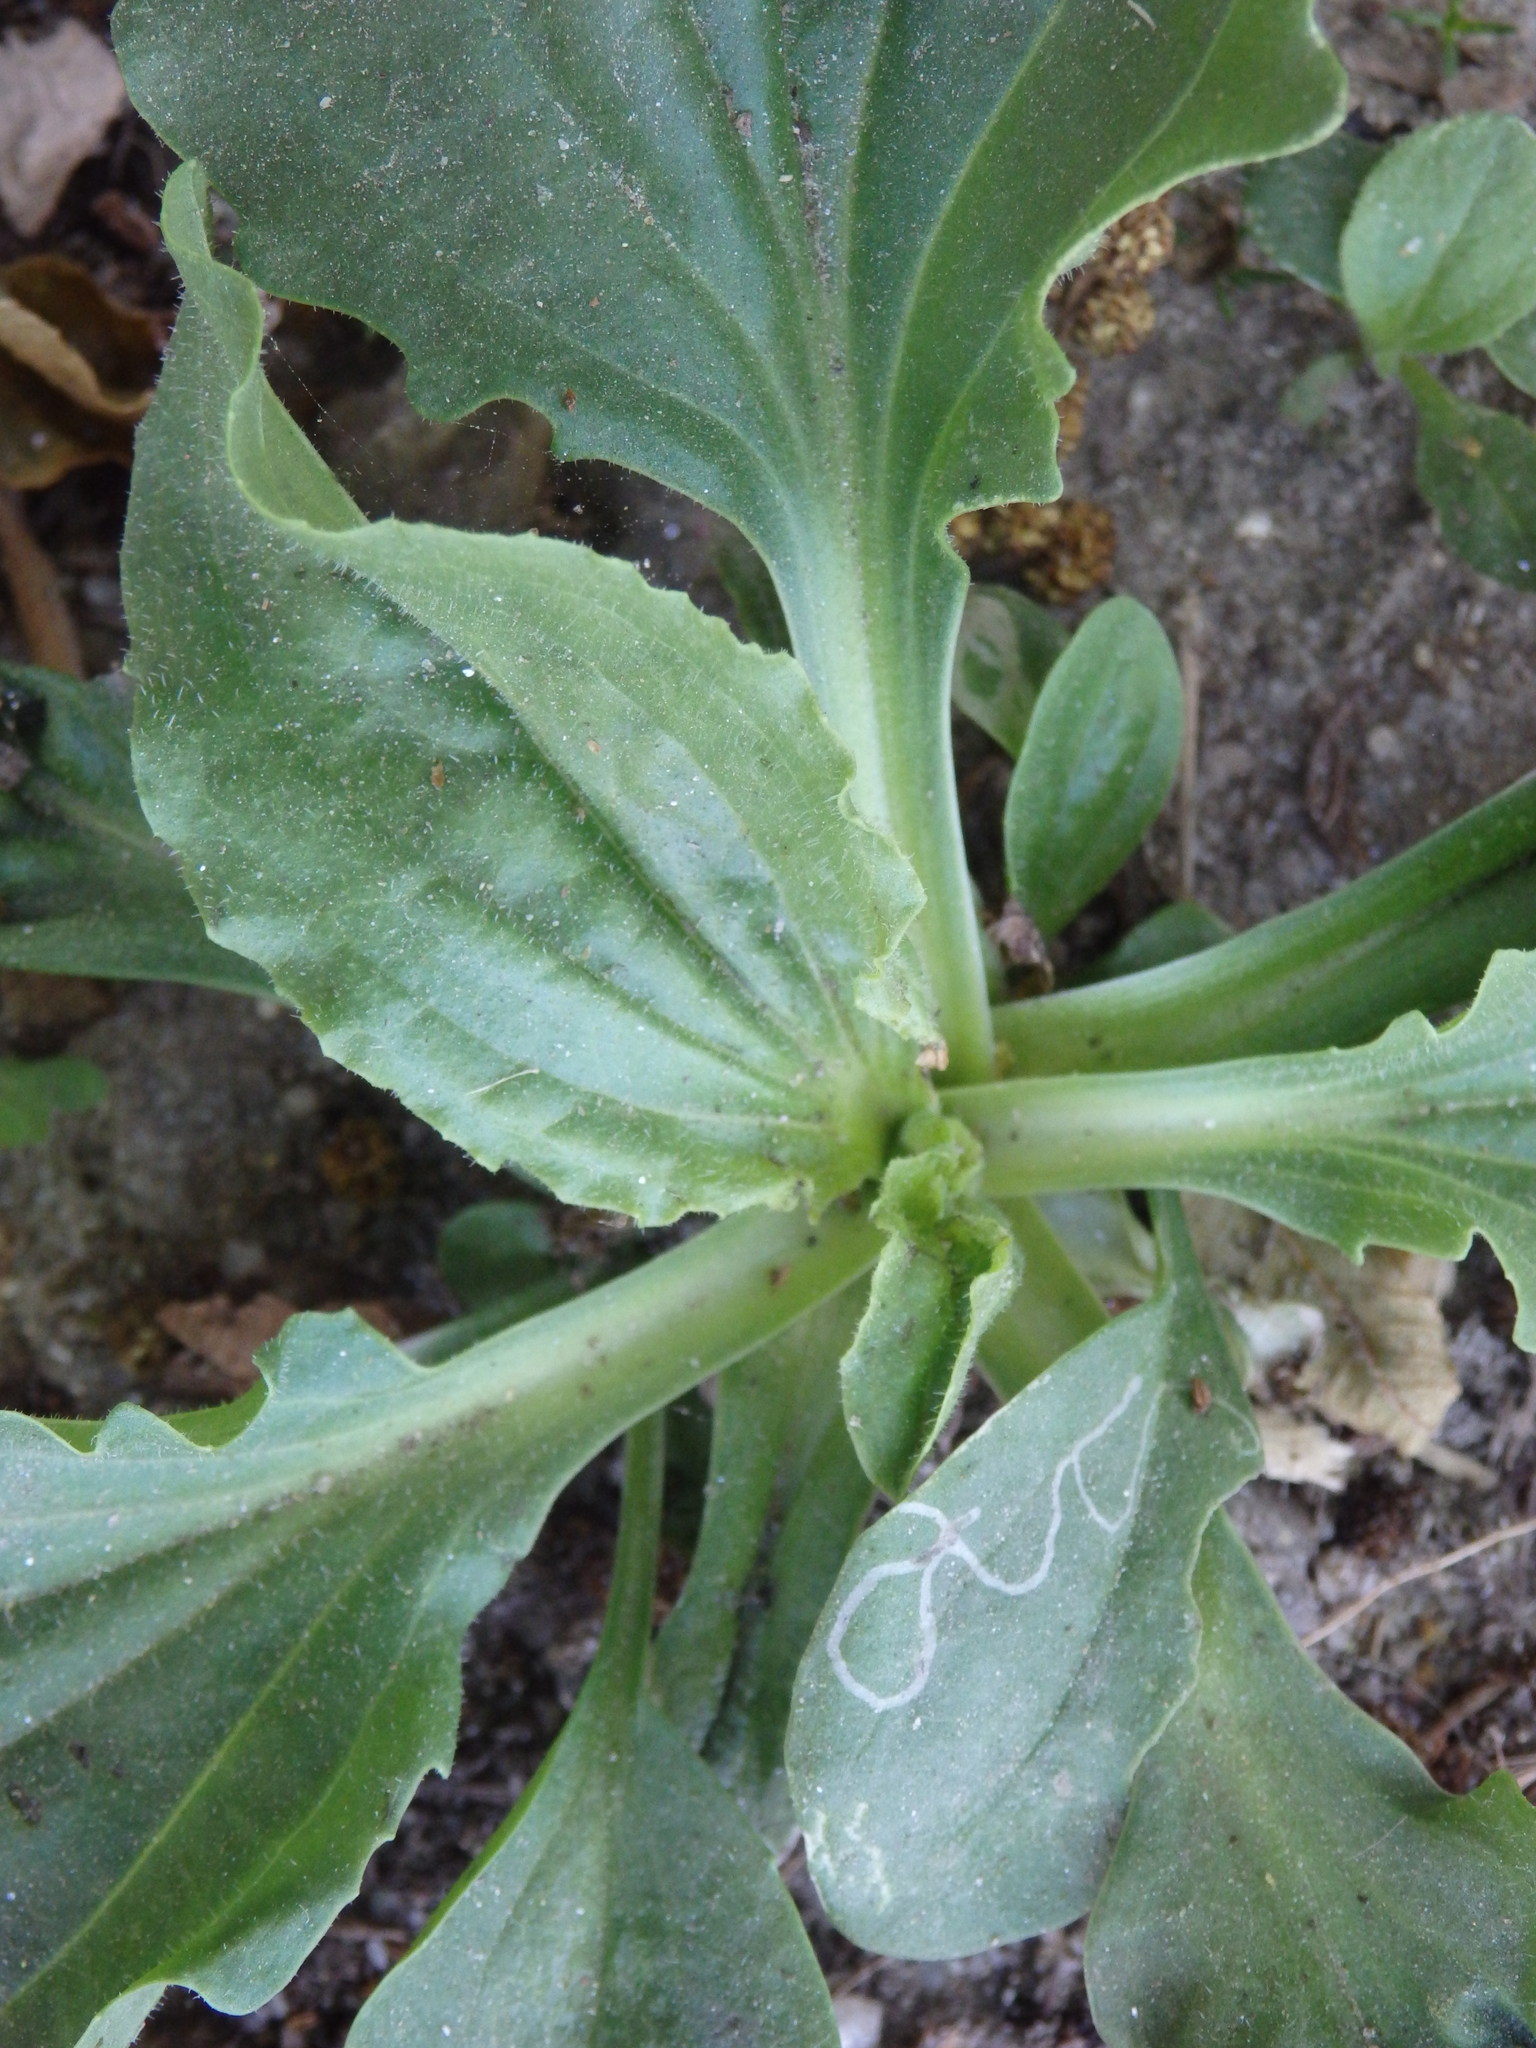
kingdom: Plantae
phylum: Tracheophyta
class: Magnoliopsida
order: Lamiales
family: Plantaginaceae
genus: Plantago
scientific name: Plantago major
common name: Common plantain
